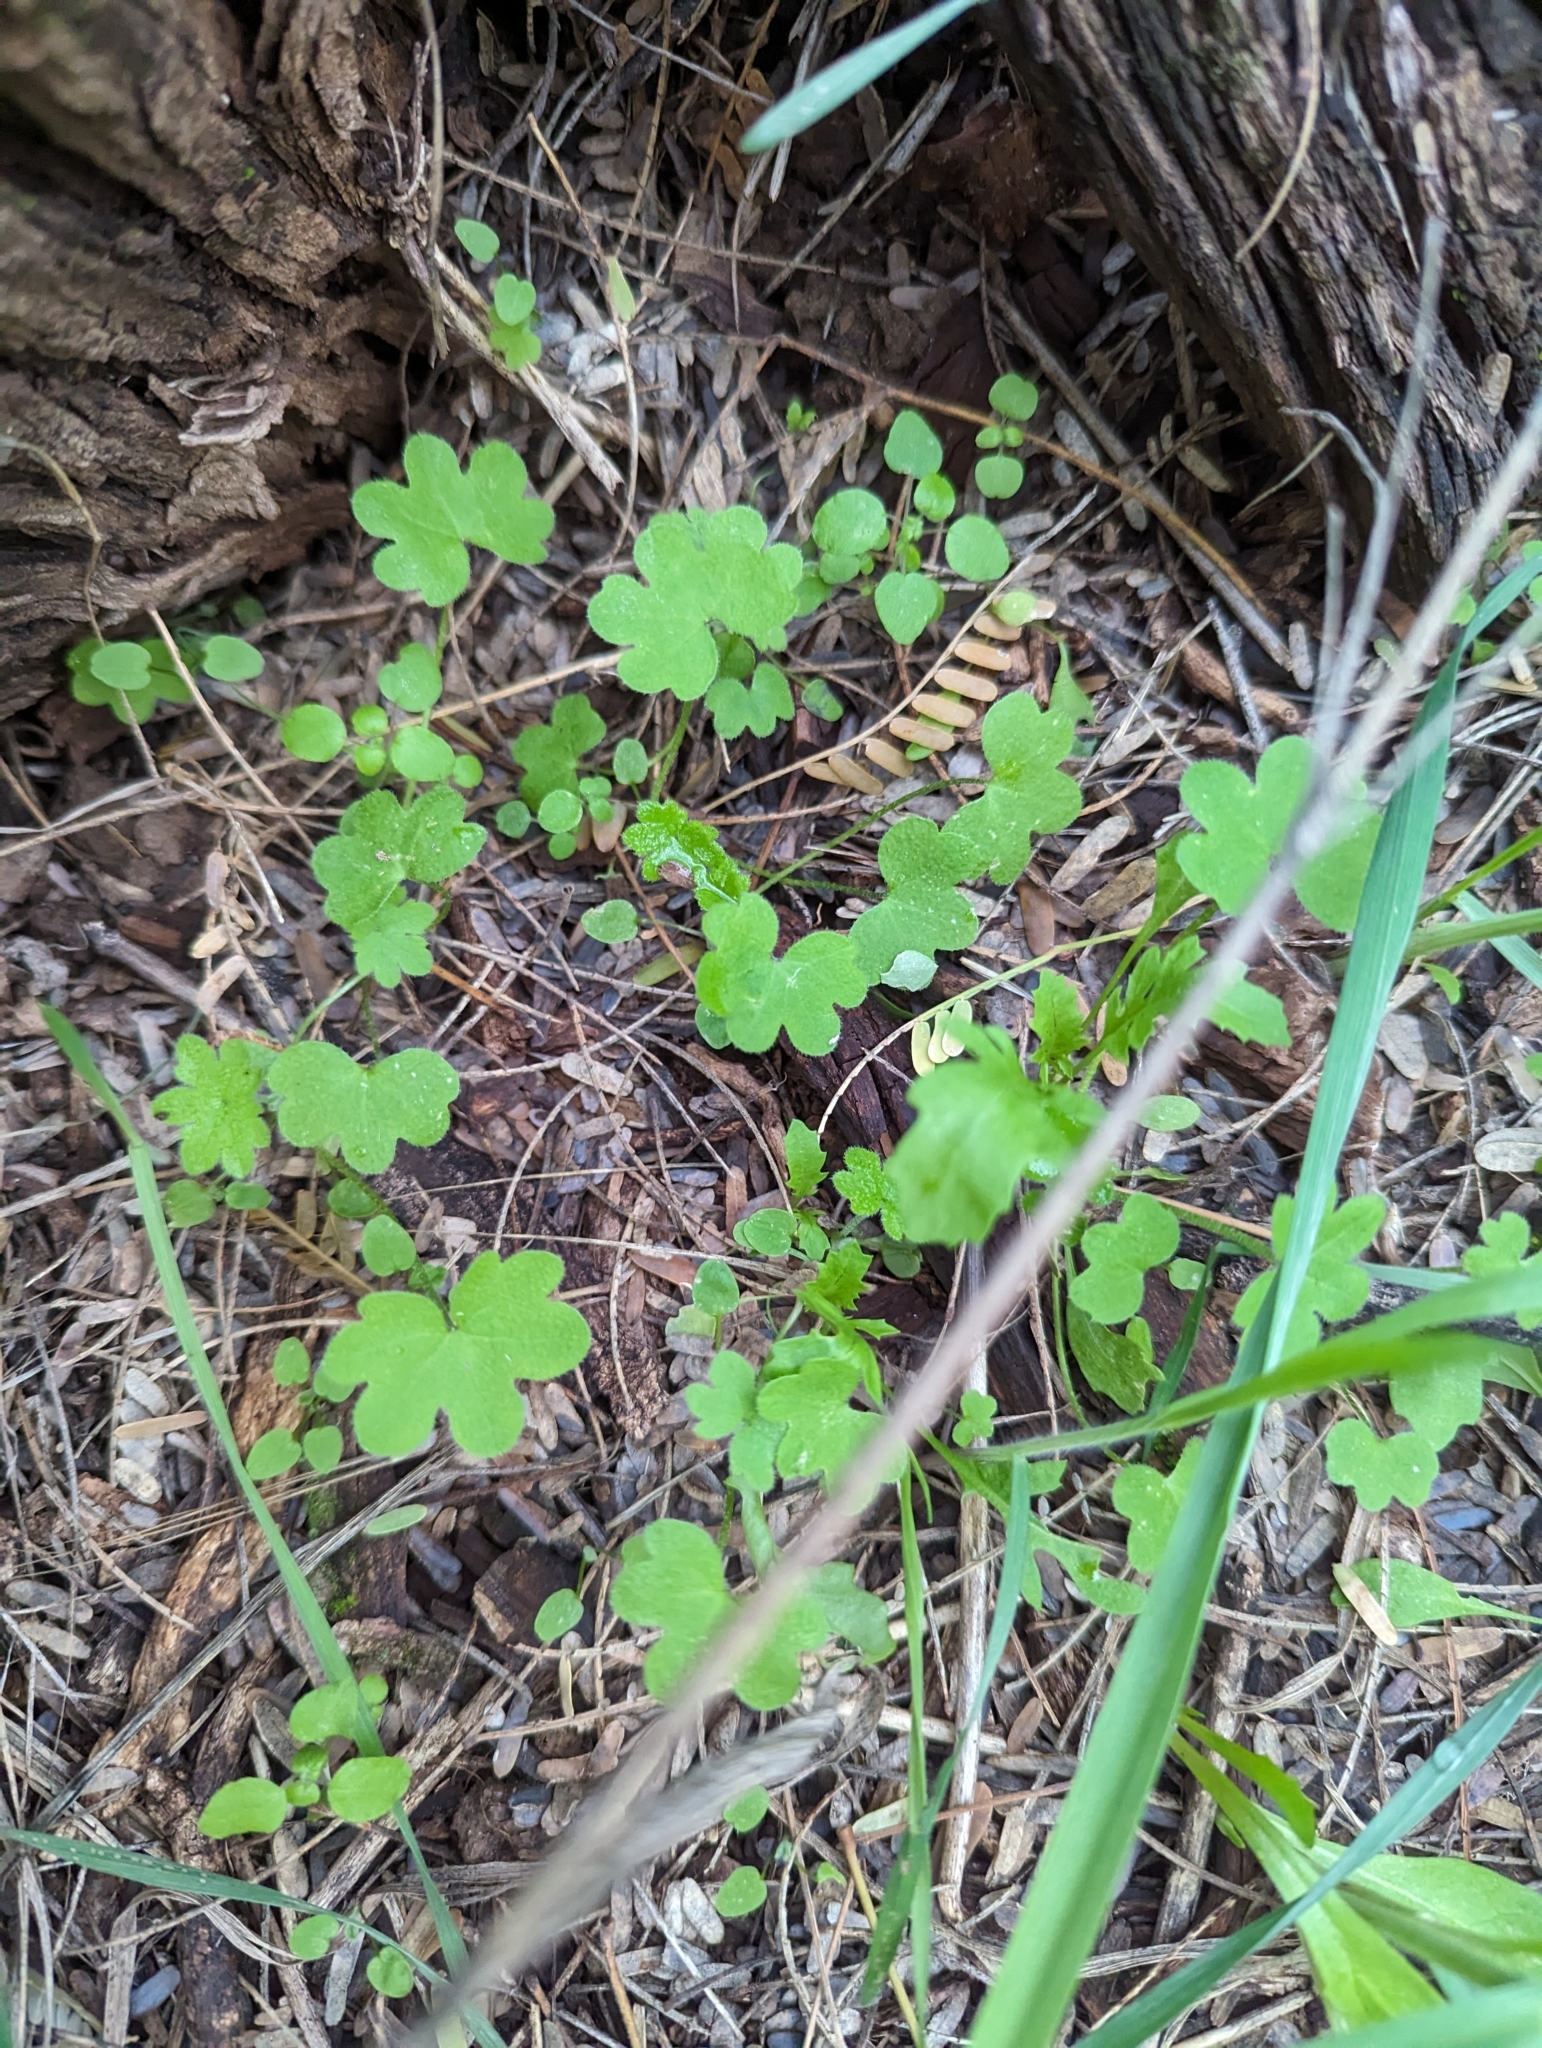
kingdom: Plantae
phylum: Tracheophyta
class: Magnoliopsida
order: Apiales
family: Apiaceae
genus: Bowlesia
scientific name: Bowlesia incana
